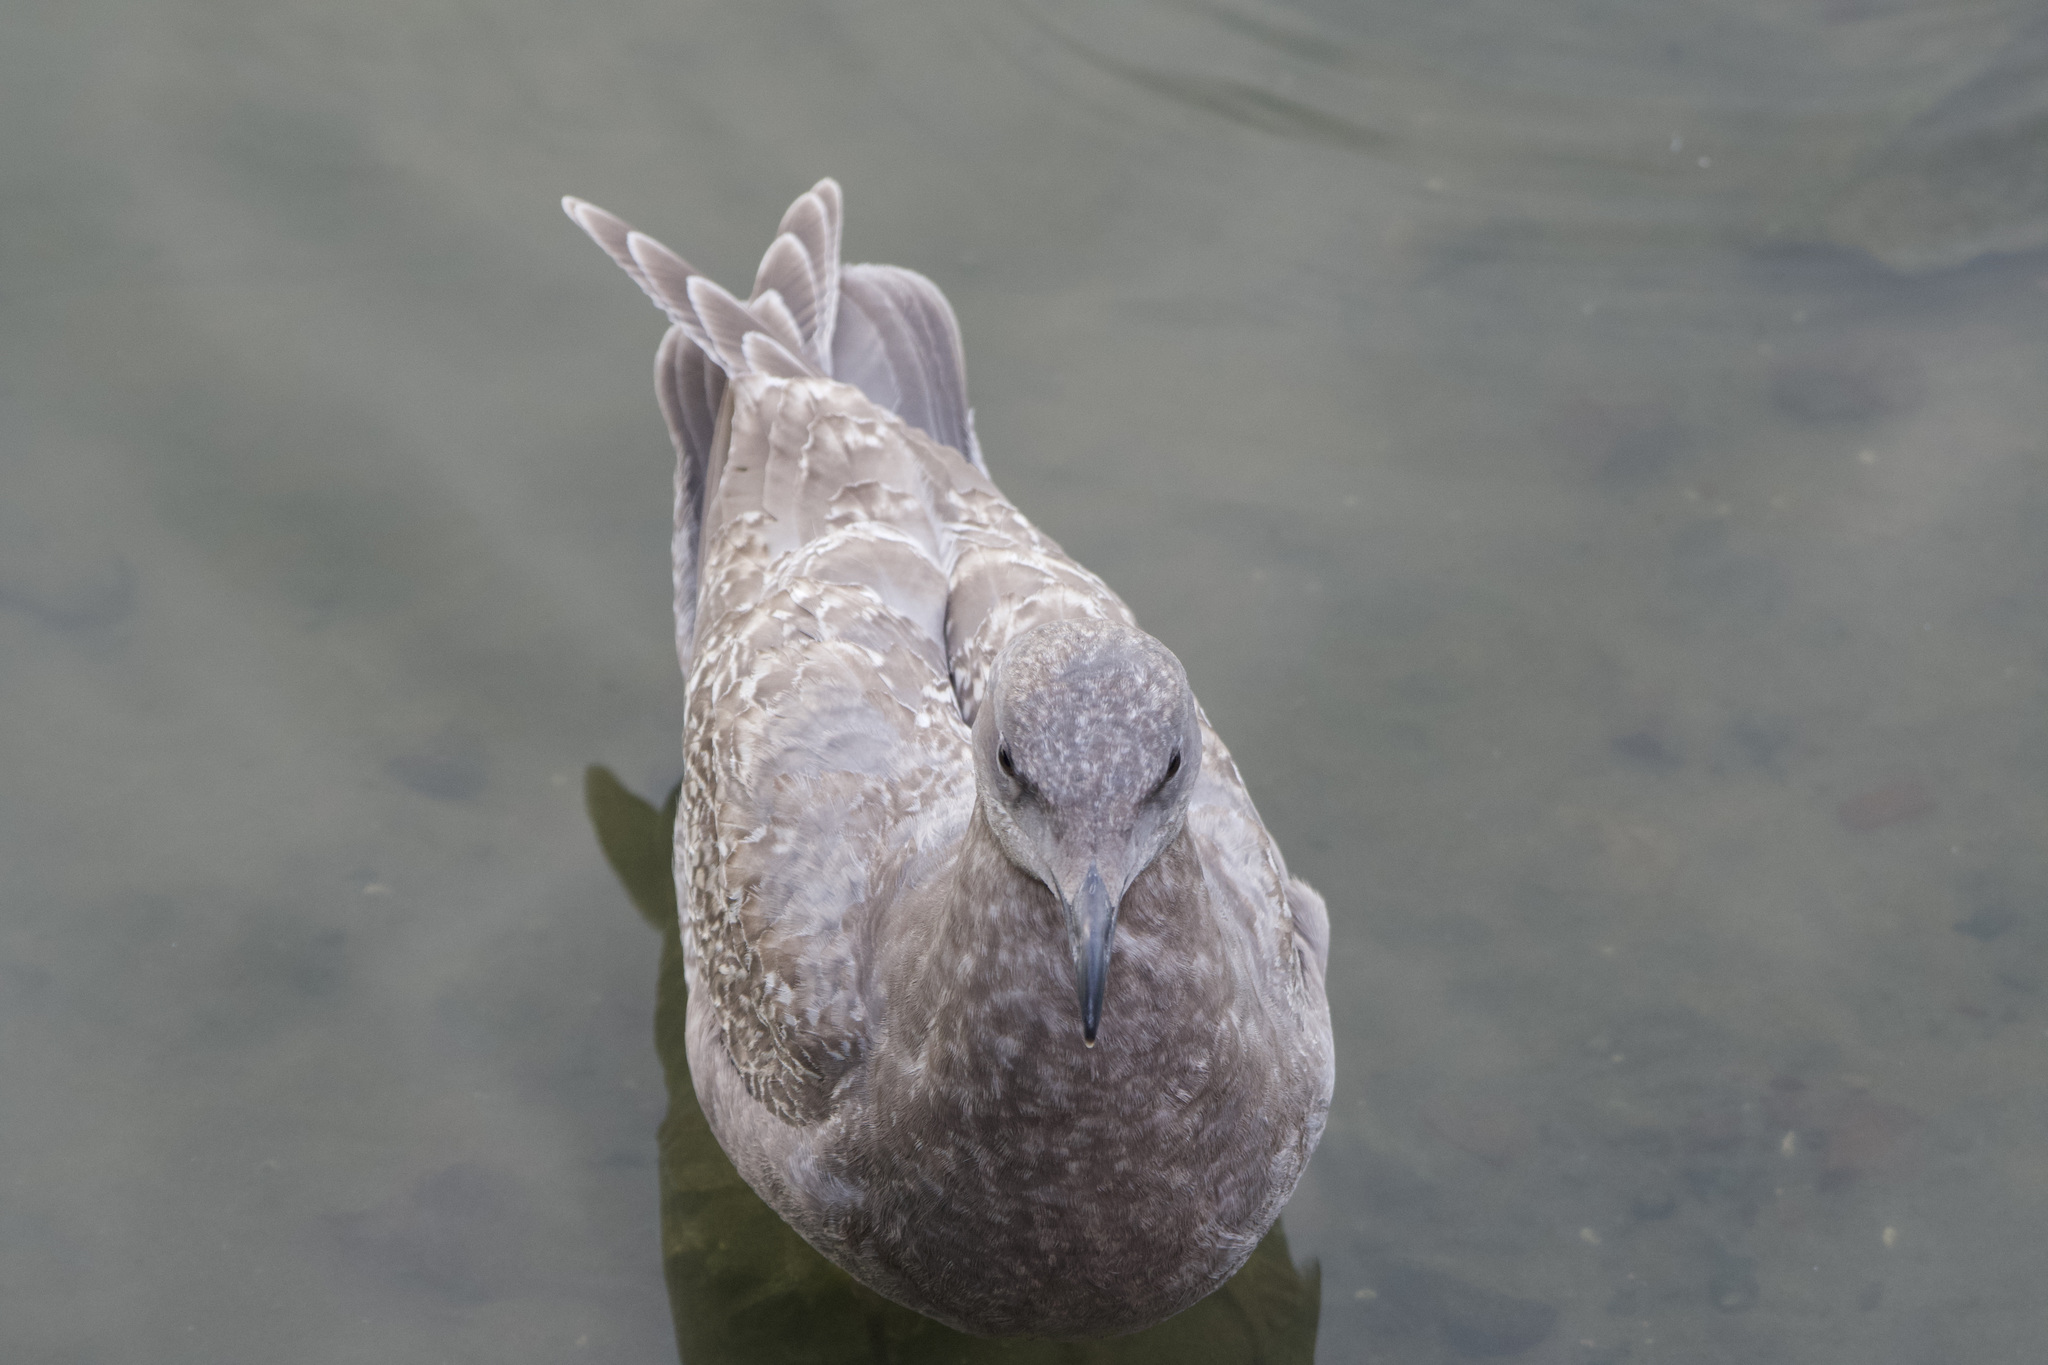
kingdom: Animalia
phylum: Chordata
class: Aves
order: Charadriiformes
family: Laridae
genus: Larus
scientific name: Larus
